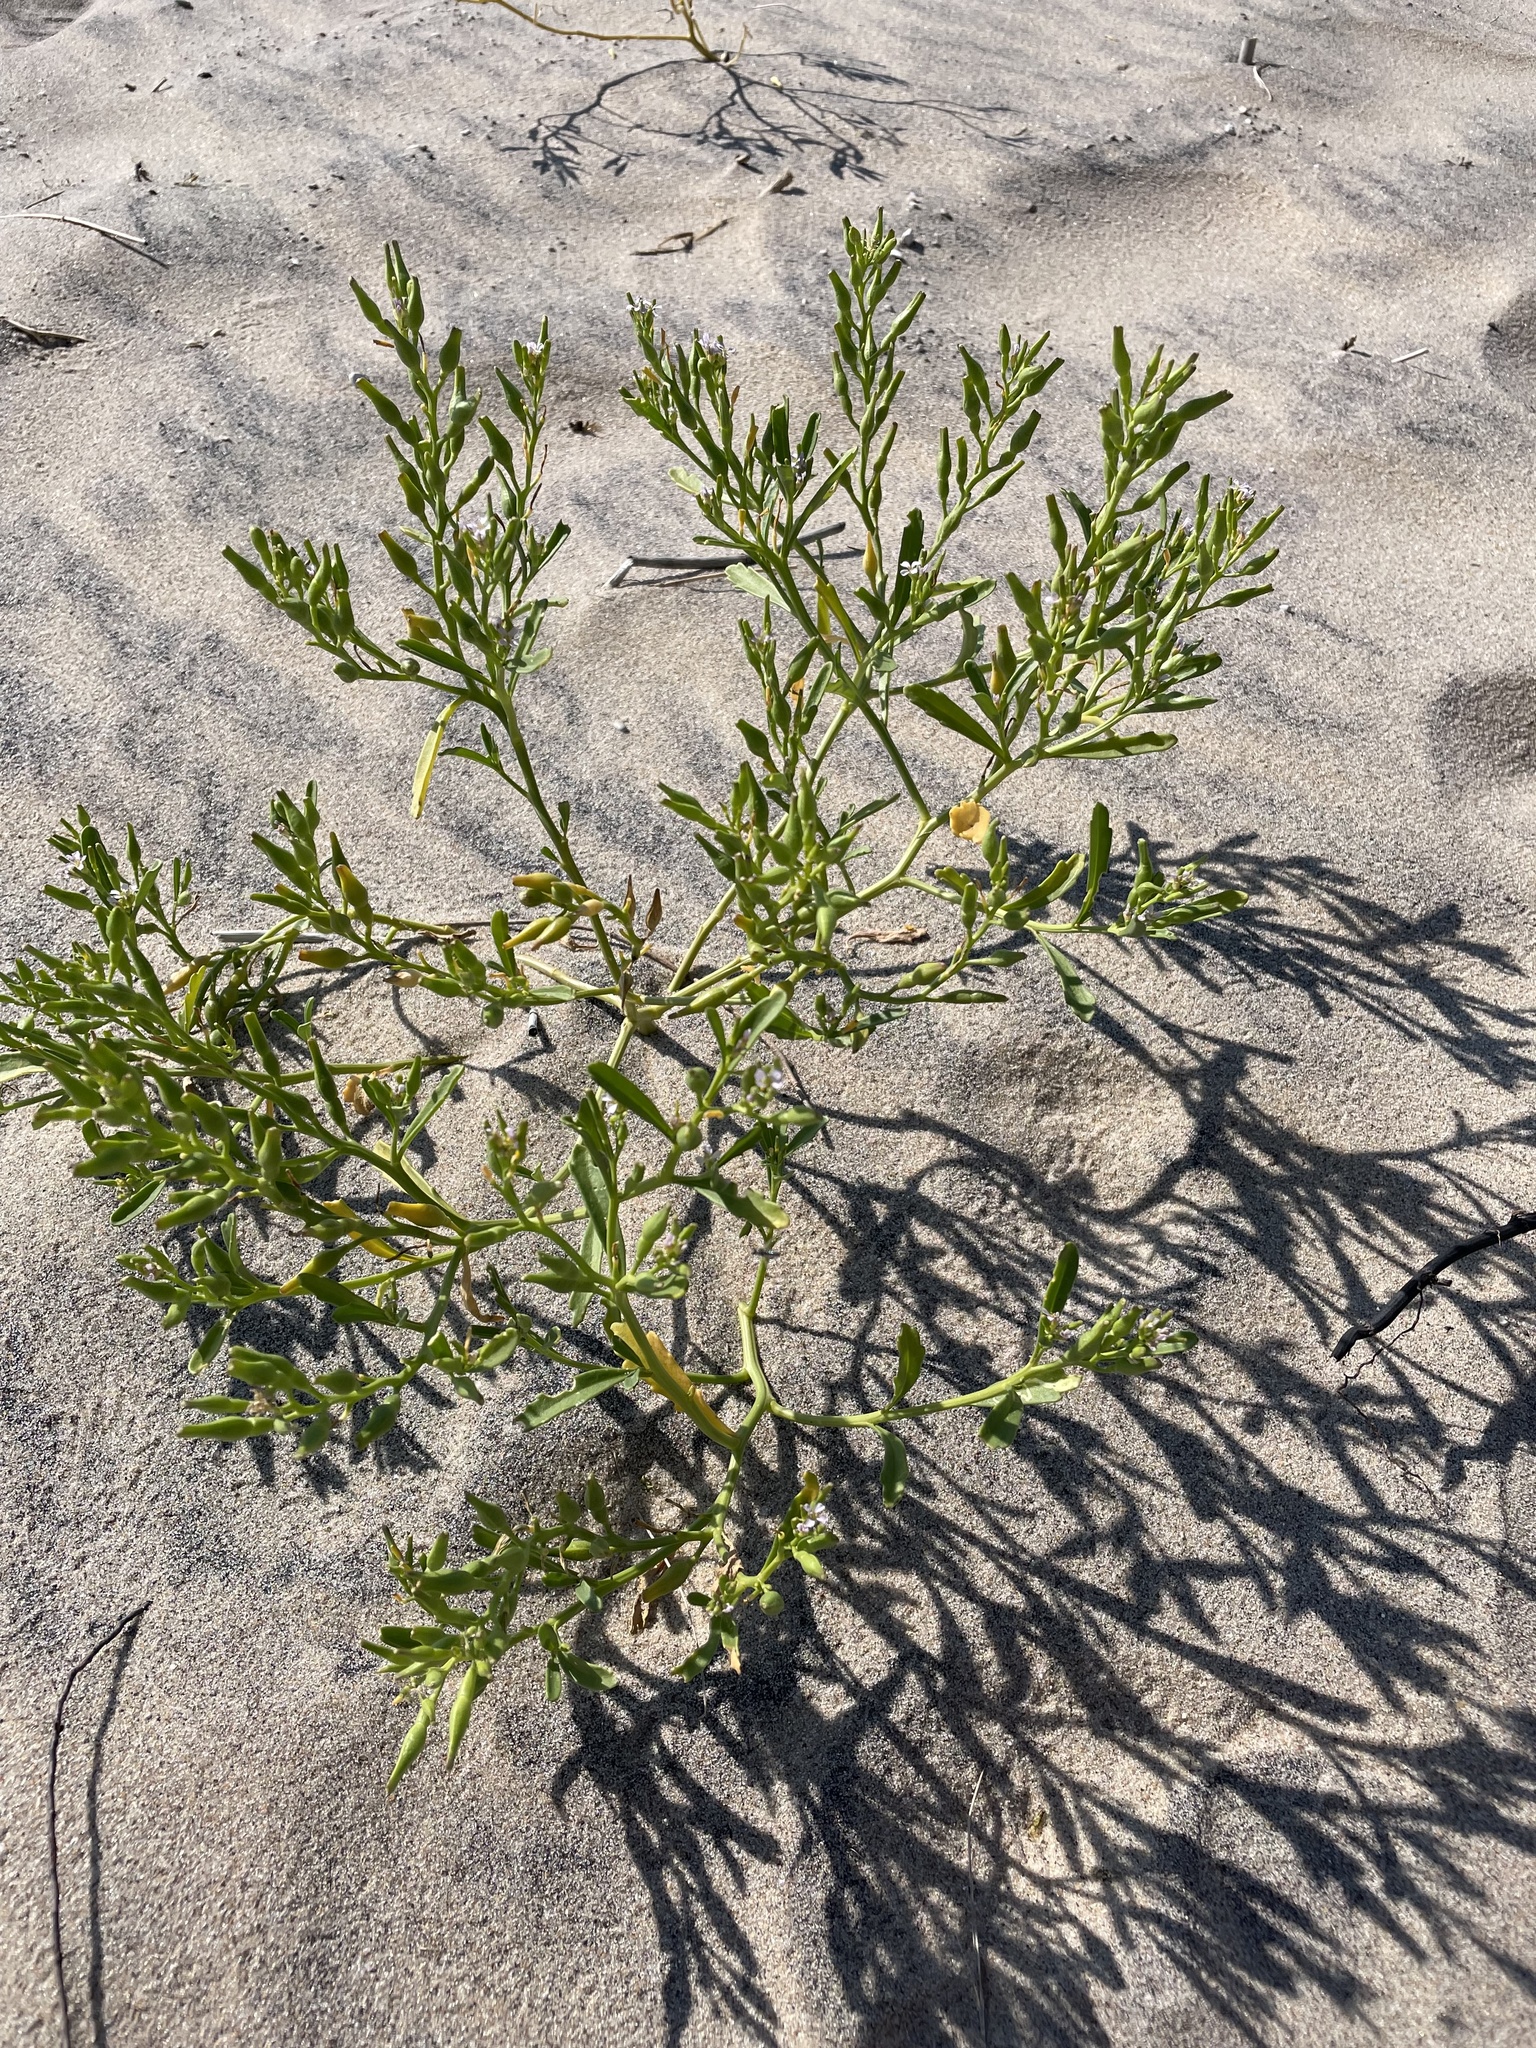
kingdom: Plantae
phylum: Tracheophyta
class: Magnoliopsida
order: Brassicales
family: Brassicaceae
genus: Cakile
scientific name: Cakile edentula
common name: American sea rocket
